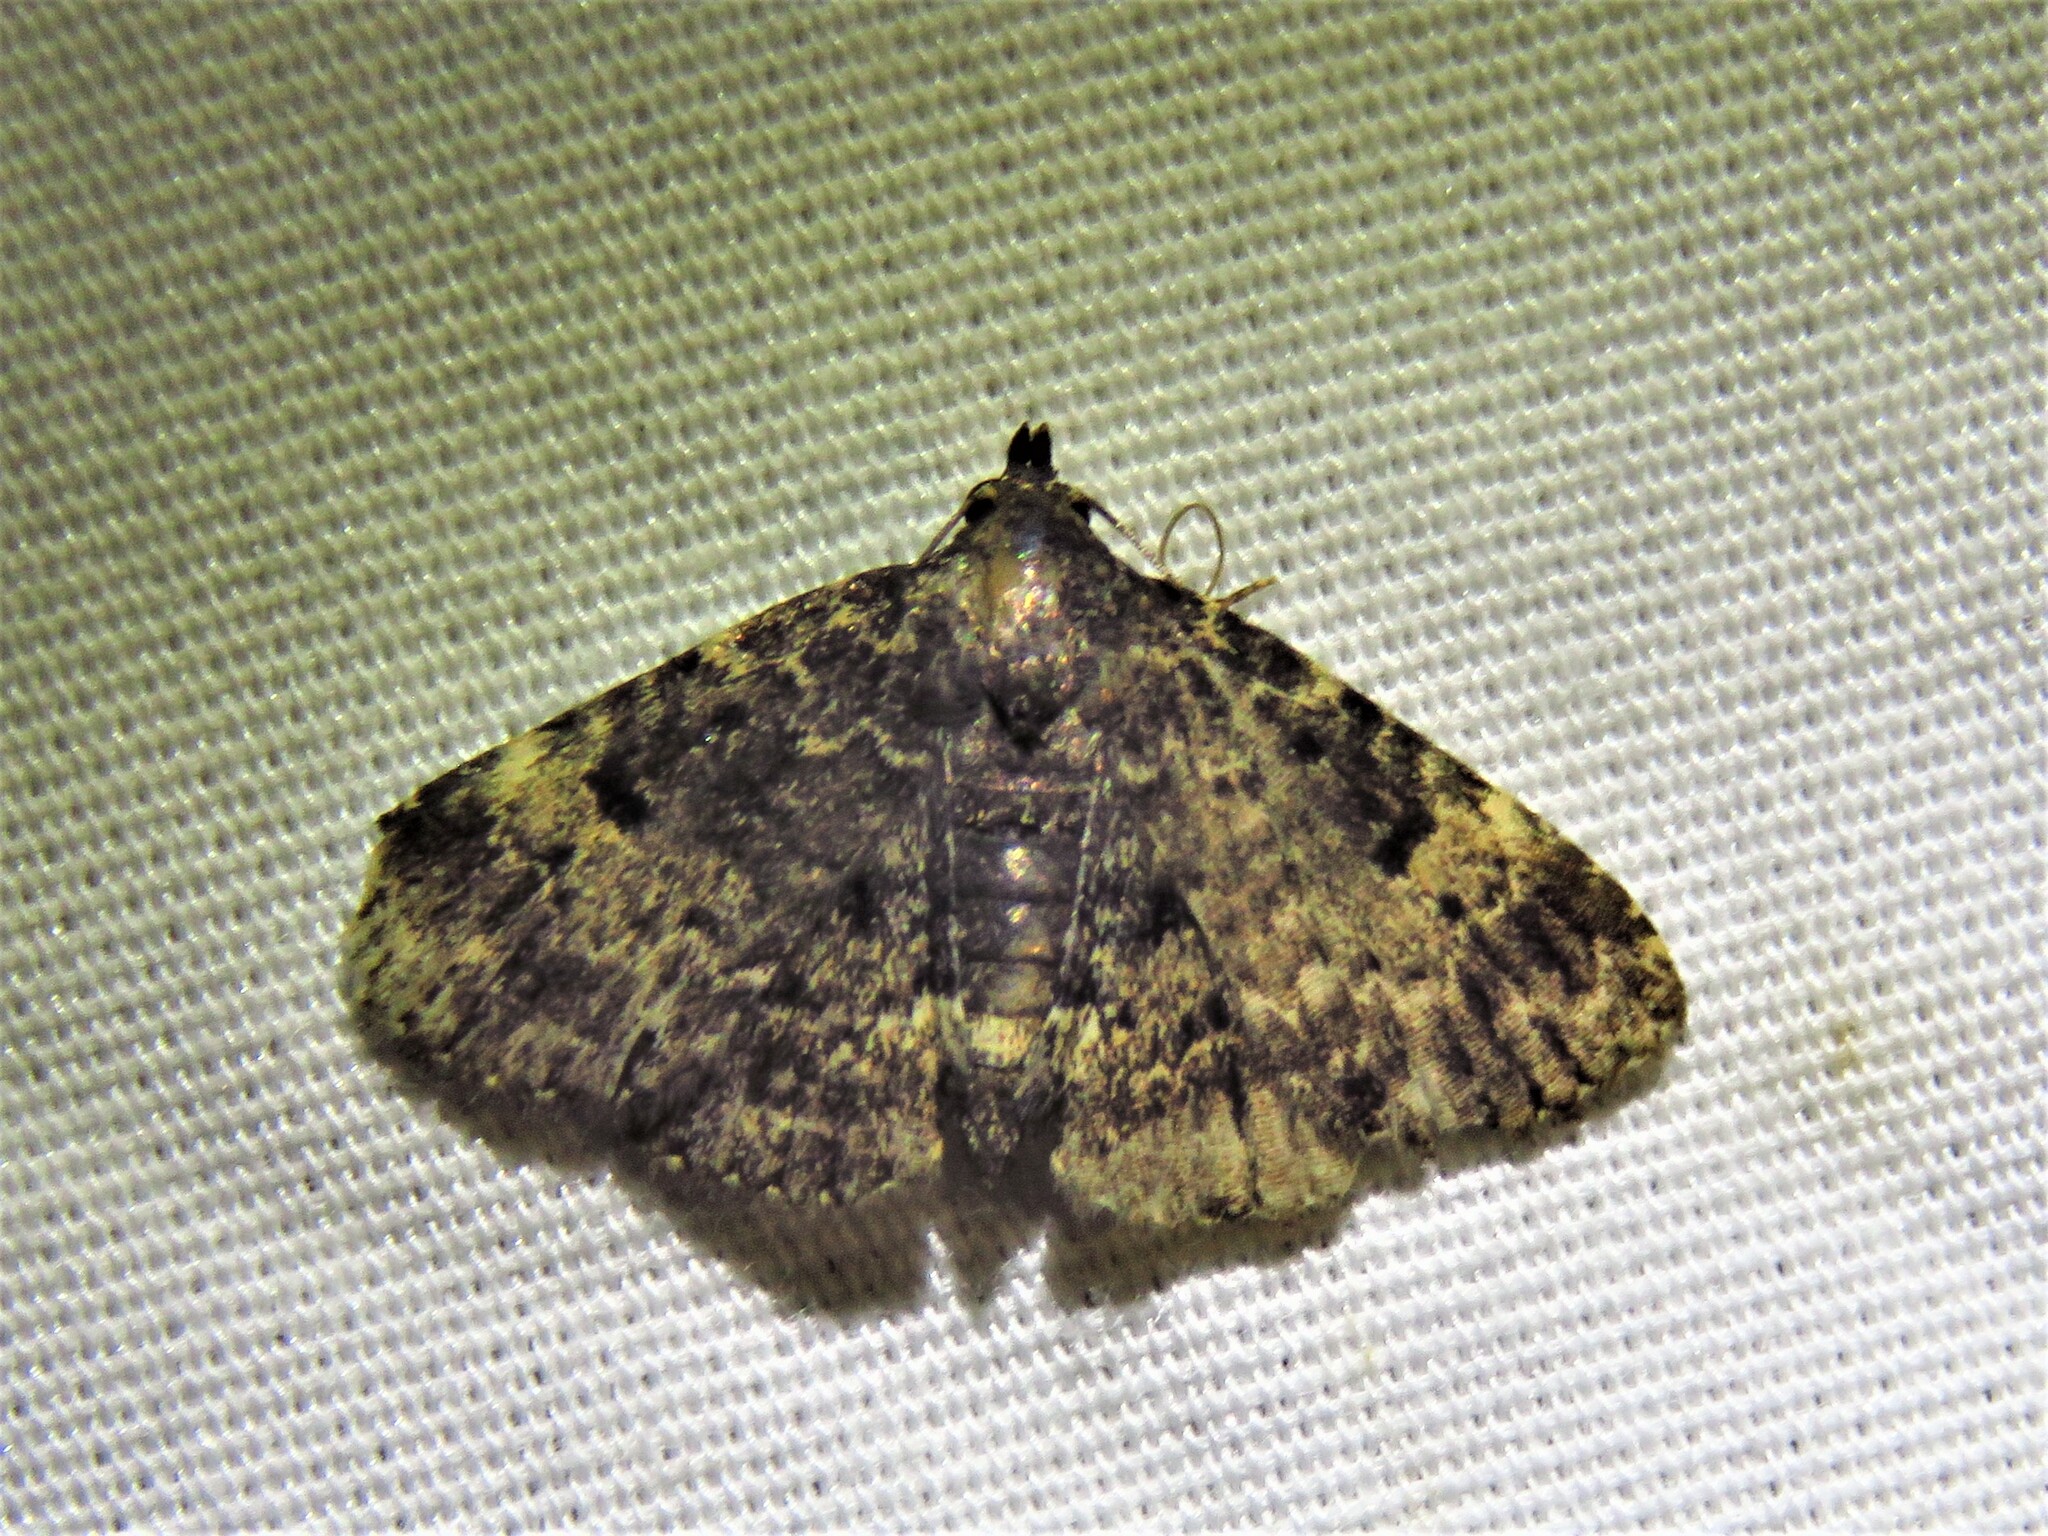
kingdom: Animalia
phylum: Arthropoda
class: Insecta
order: Lepidoptera
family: Erebidae
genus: Metalectra
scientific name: Metalectra diabolica
